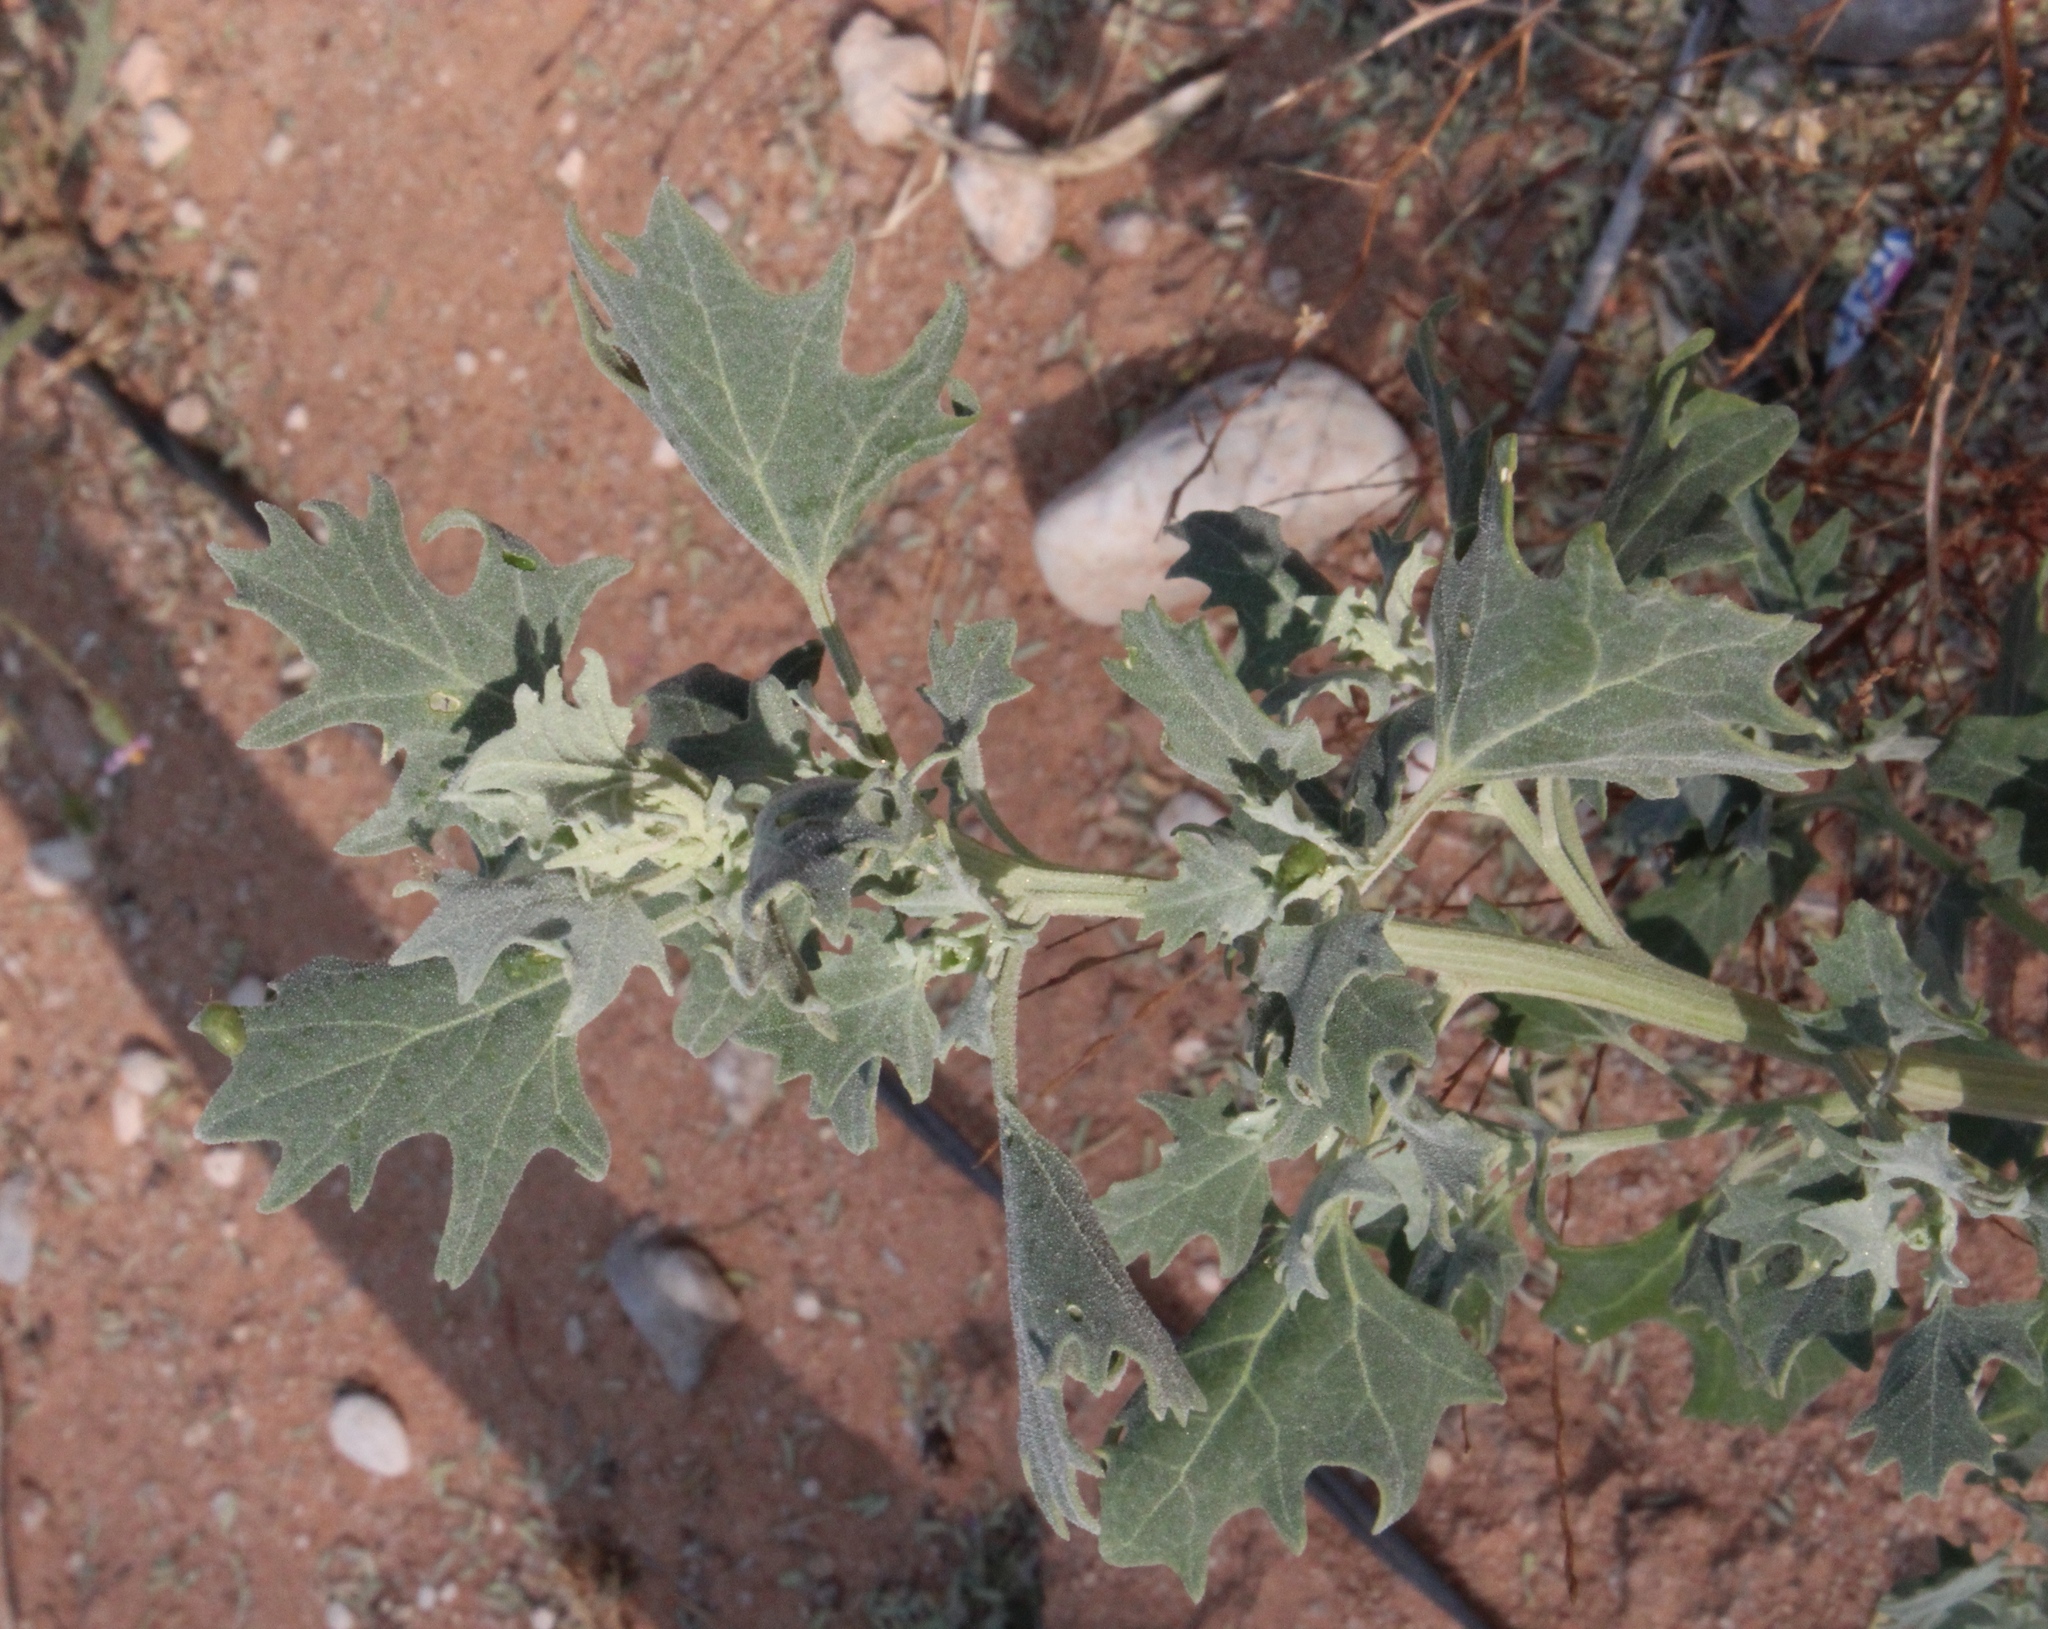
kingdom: Plantae
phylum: Tracheophyta
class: Magnoliopsida
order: Caryophyllales
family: Amaranthaceae
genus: Chenopodium
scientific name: Chenopodium hederiforme
